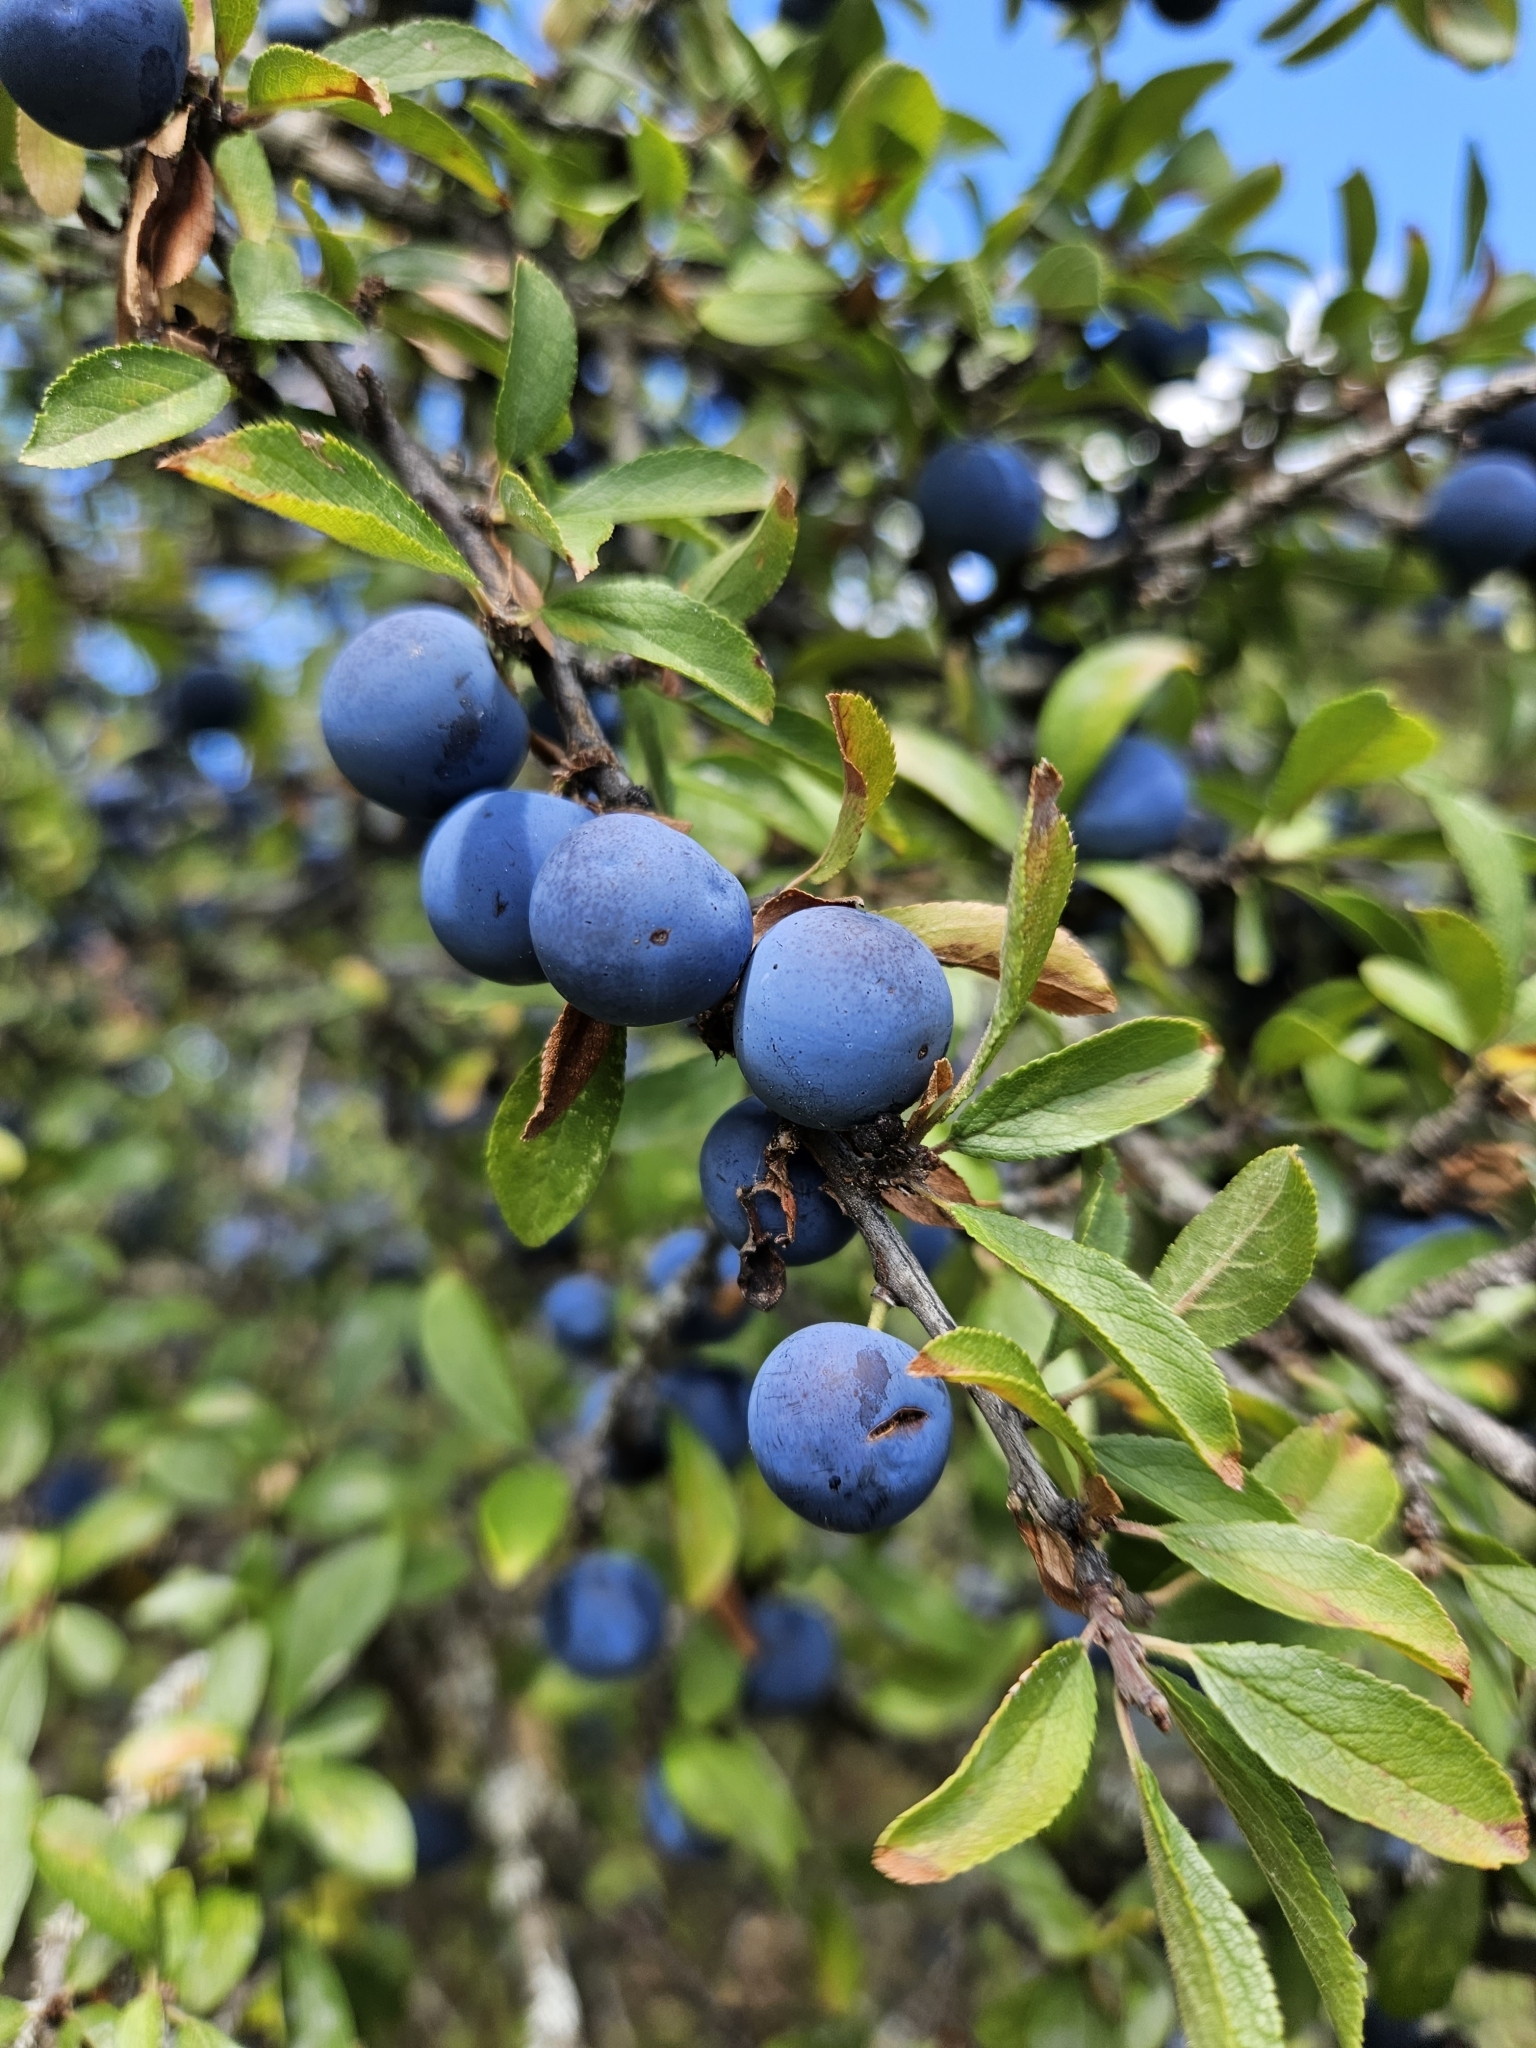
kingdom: Plantae
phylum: Tracheophyta
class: Magnoliopsida
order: Rosales
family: Rosaceae
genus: Prunus
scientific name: Prunus spinosa
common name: Blackthorn
